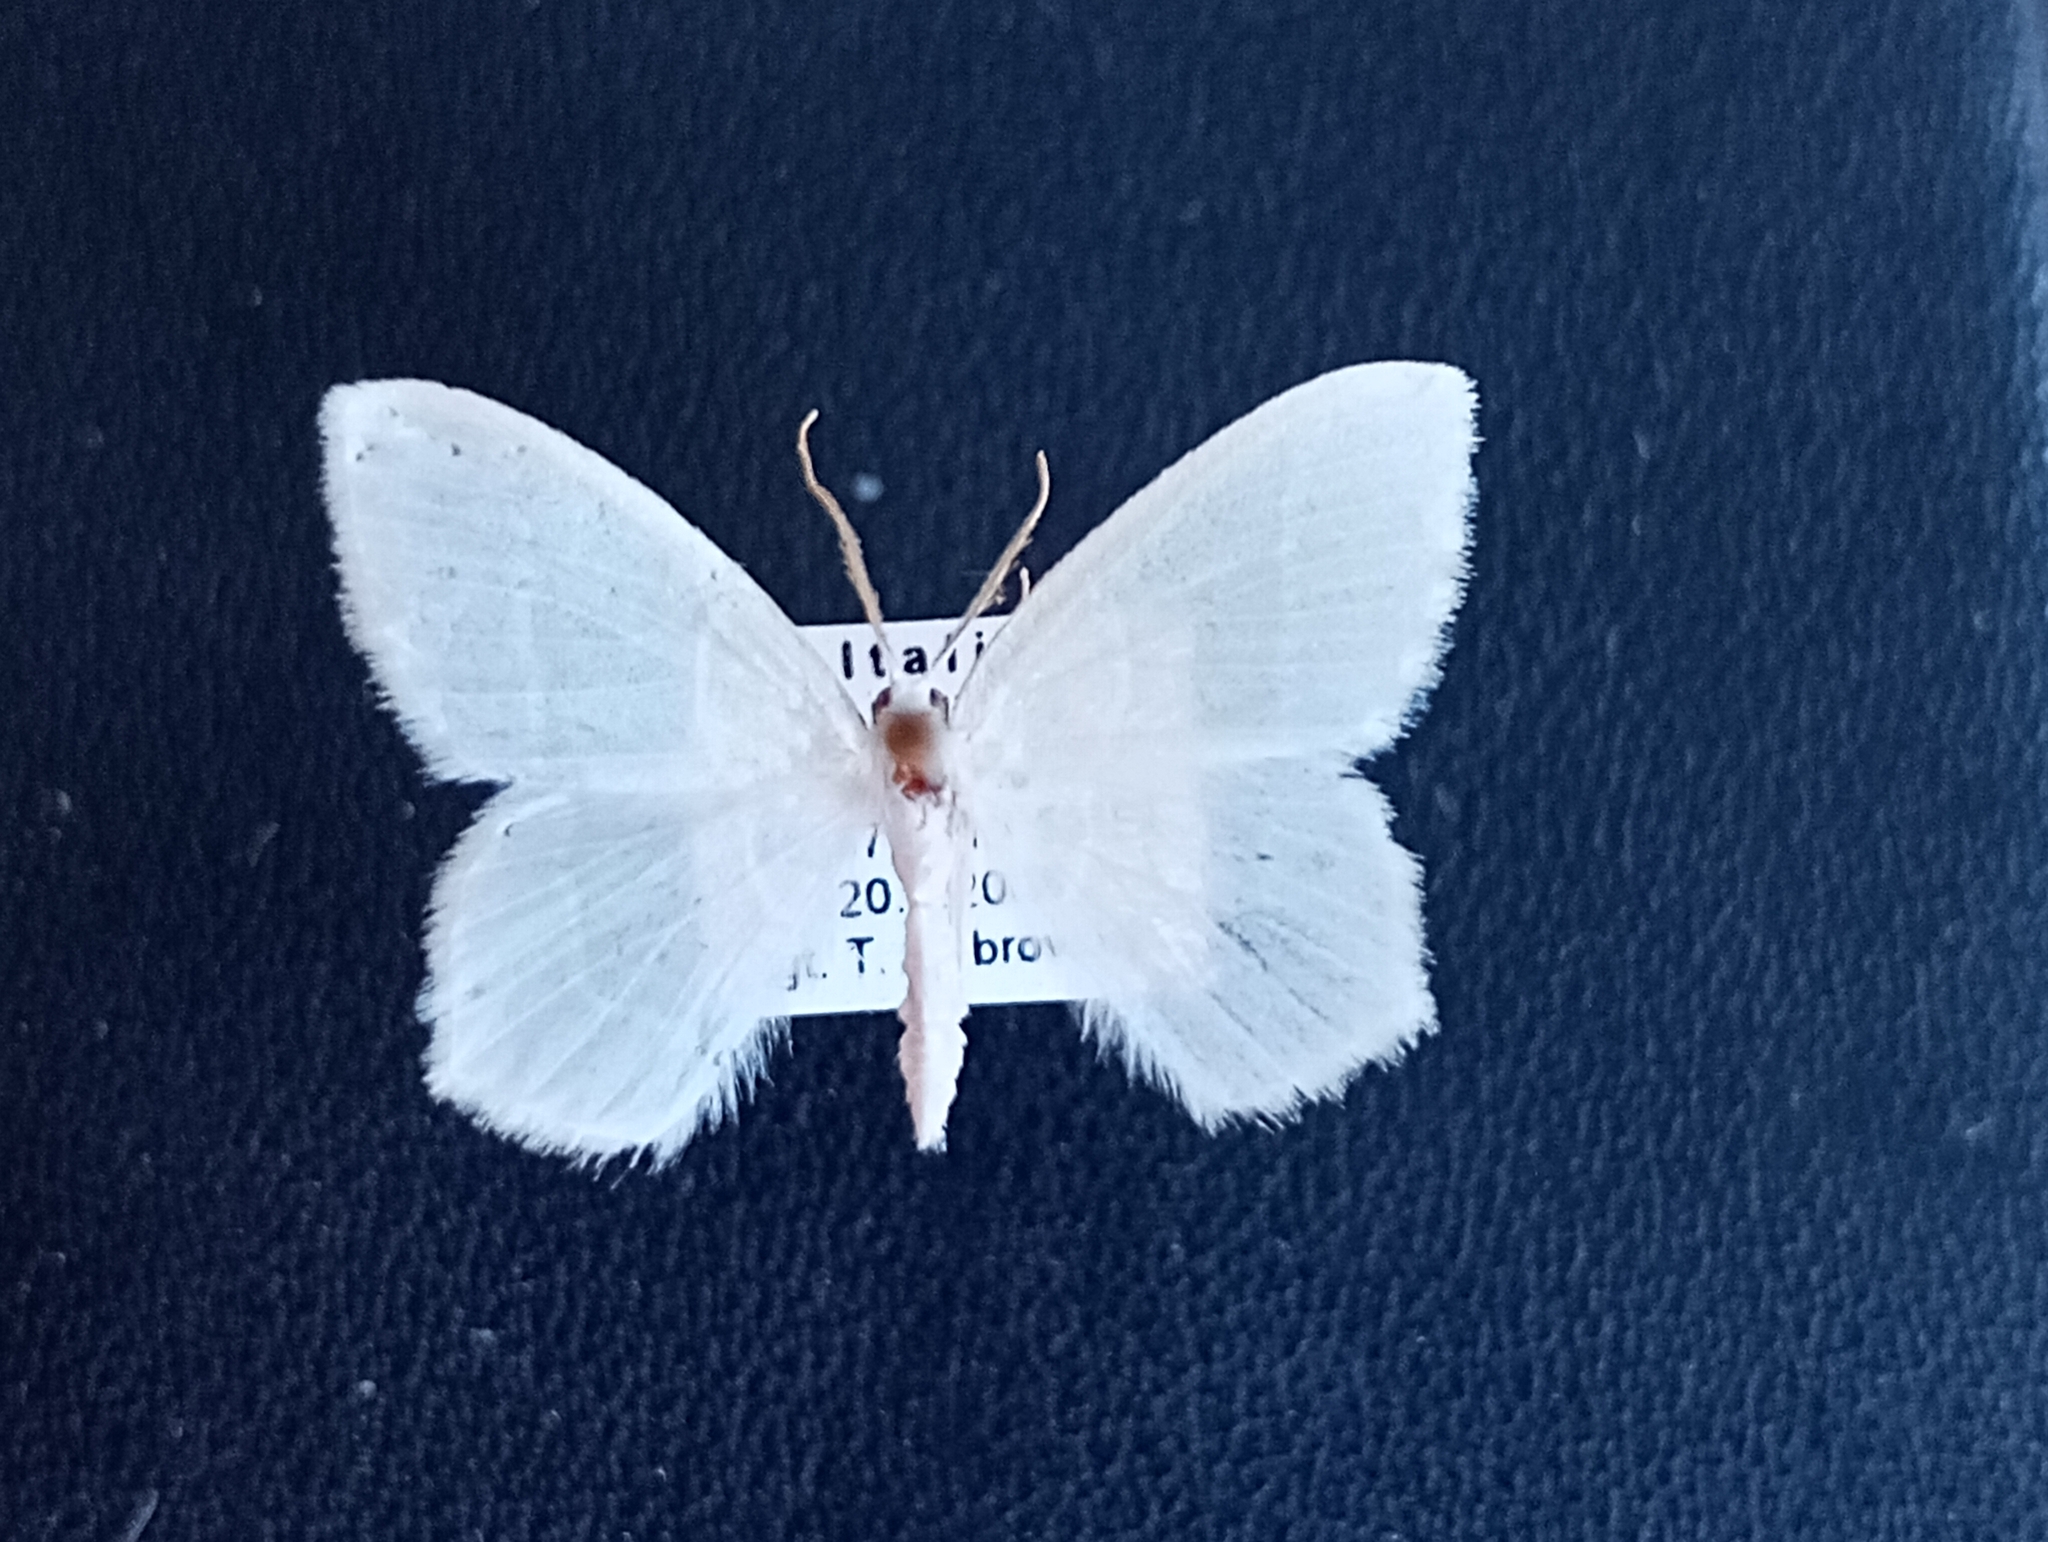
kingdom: Animalia
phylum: Arthropoda
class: Insecta
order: Lepidoptera
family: Geometridae
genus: Jodis
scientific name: Jodis lactearia
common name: Little emerald
